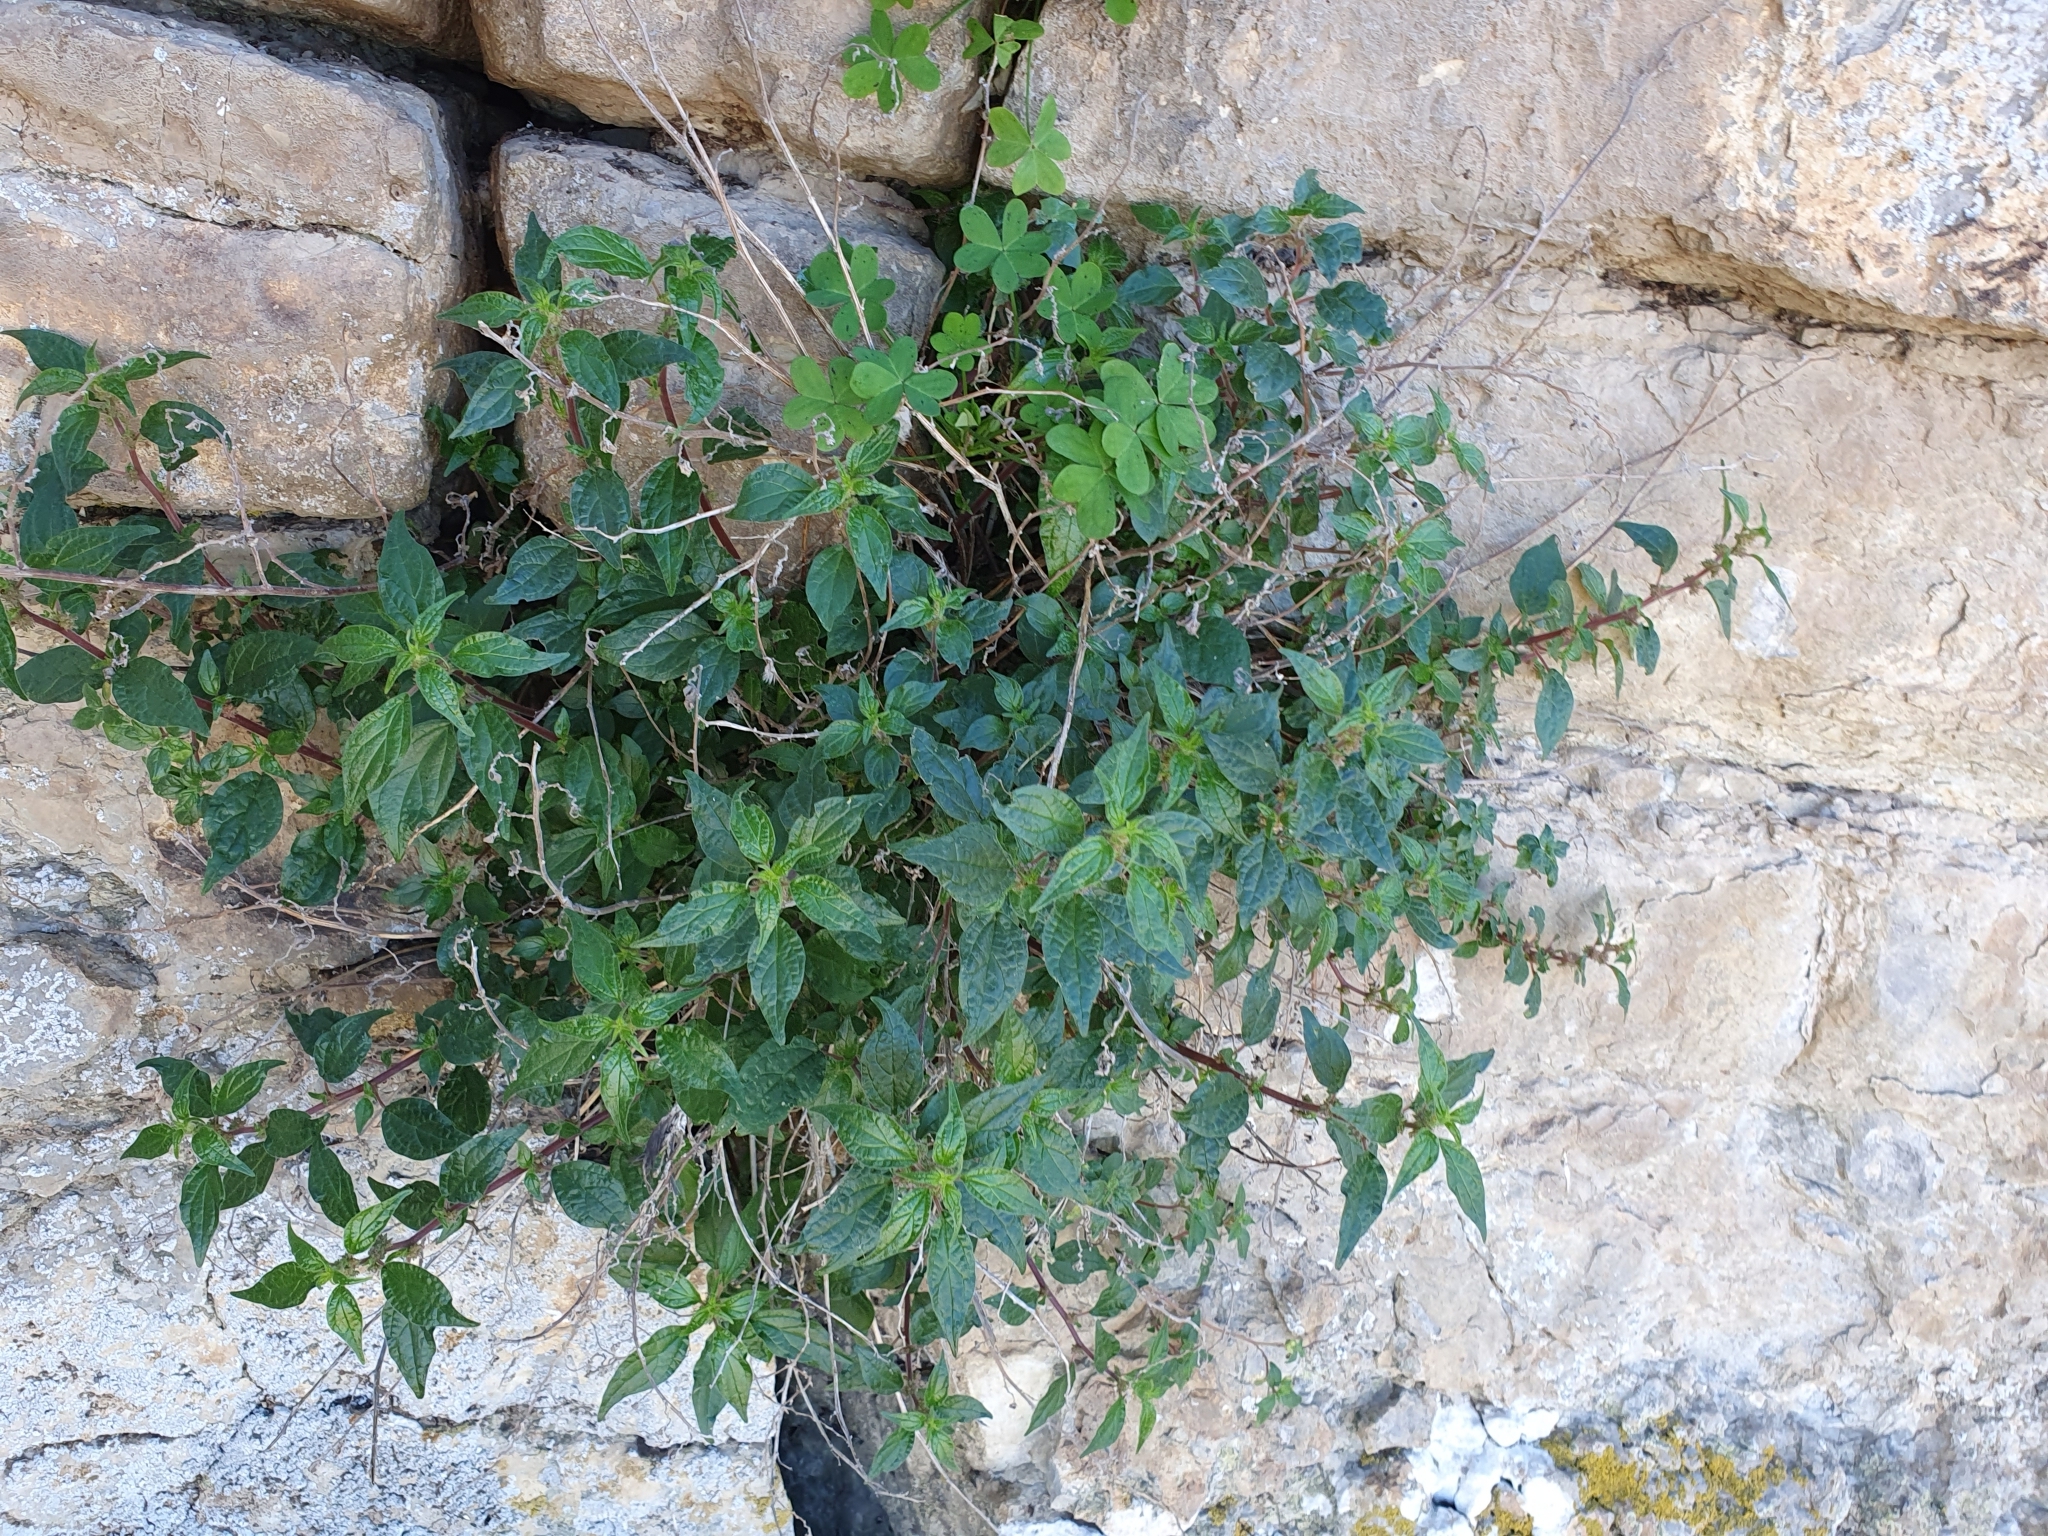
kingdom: Plantae
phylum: Tracheophyta
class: Magnoliopsida
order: Rosales
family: Urticaceae
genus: Parietaria
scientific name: Parietaria judaica
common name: Pellitory-of-the-wall
